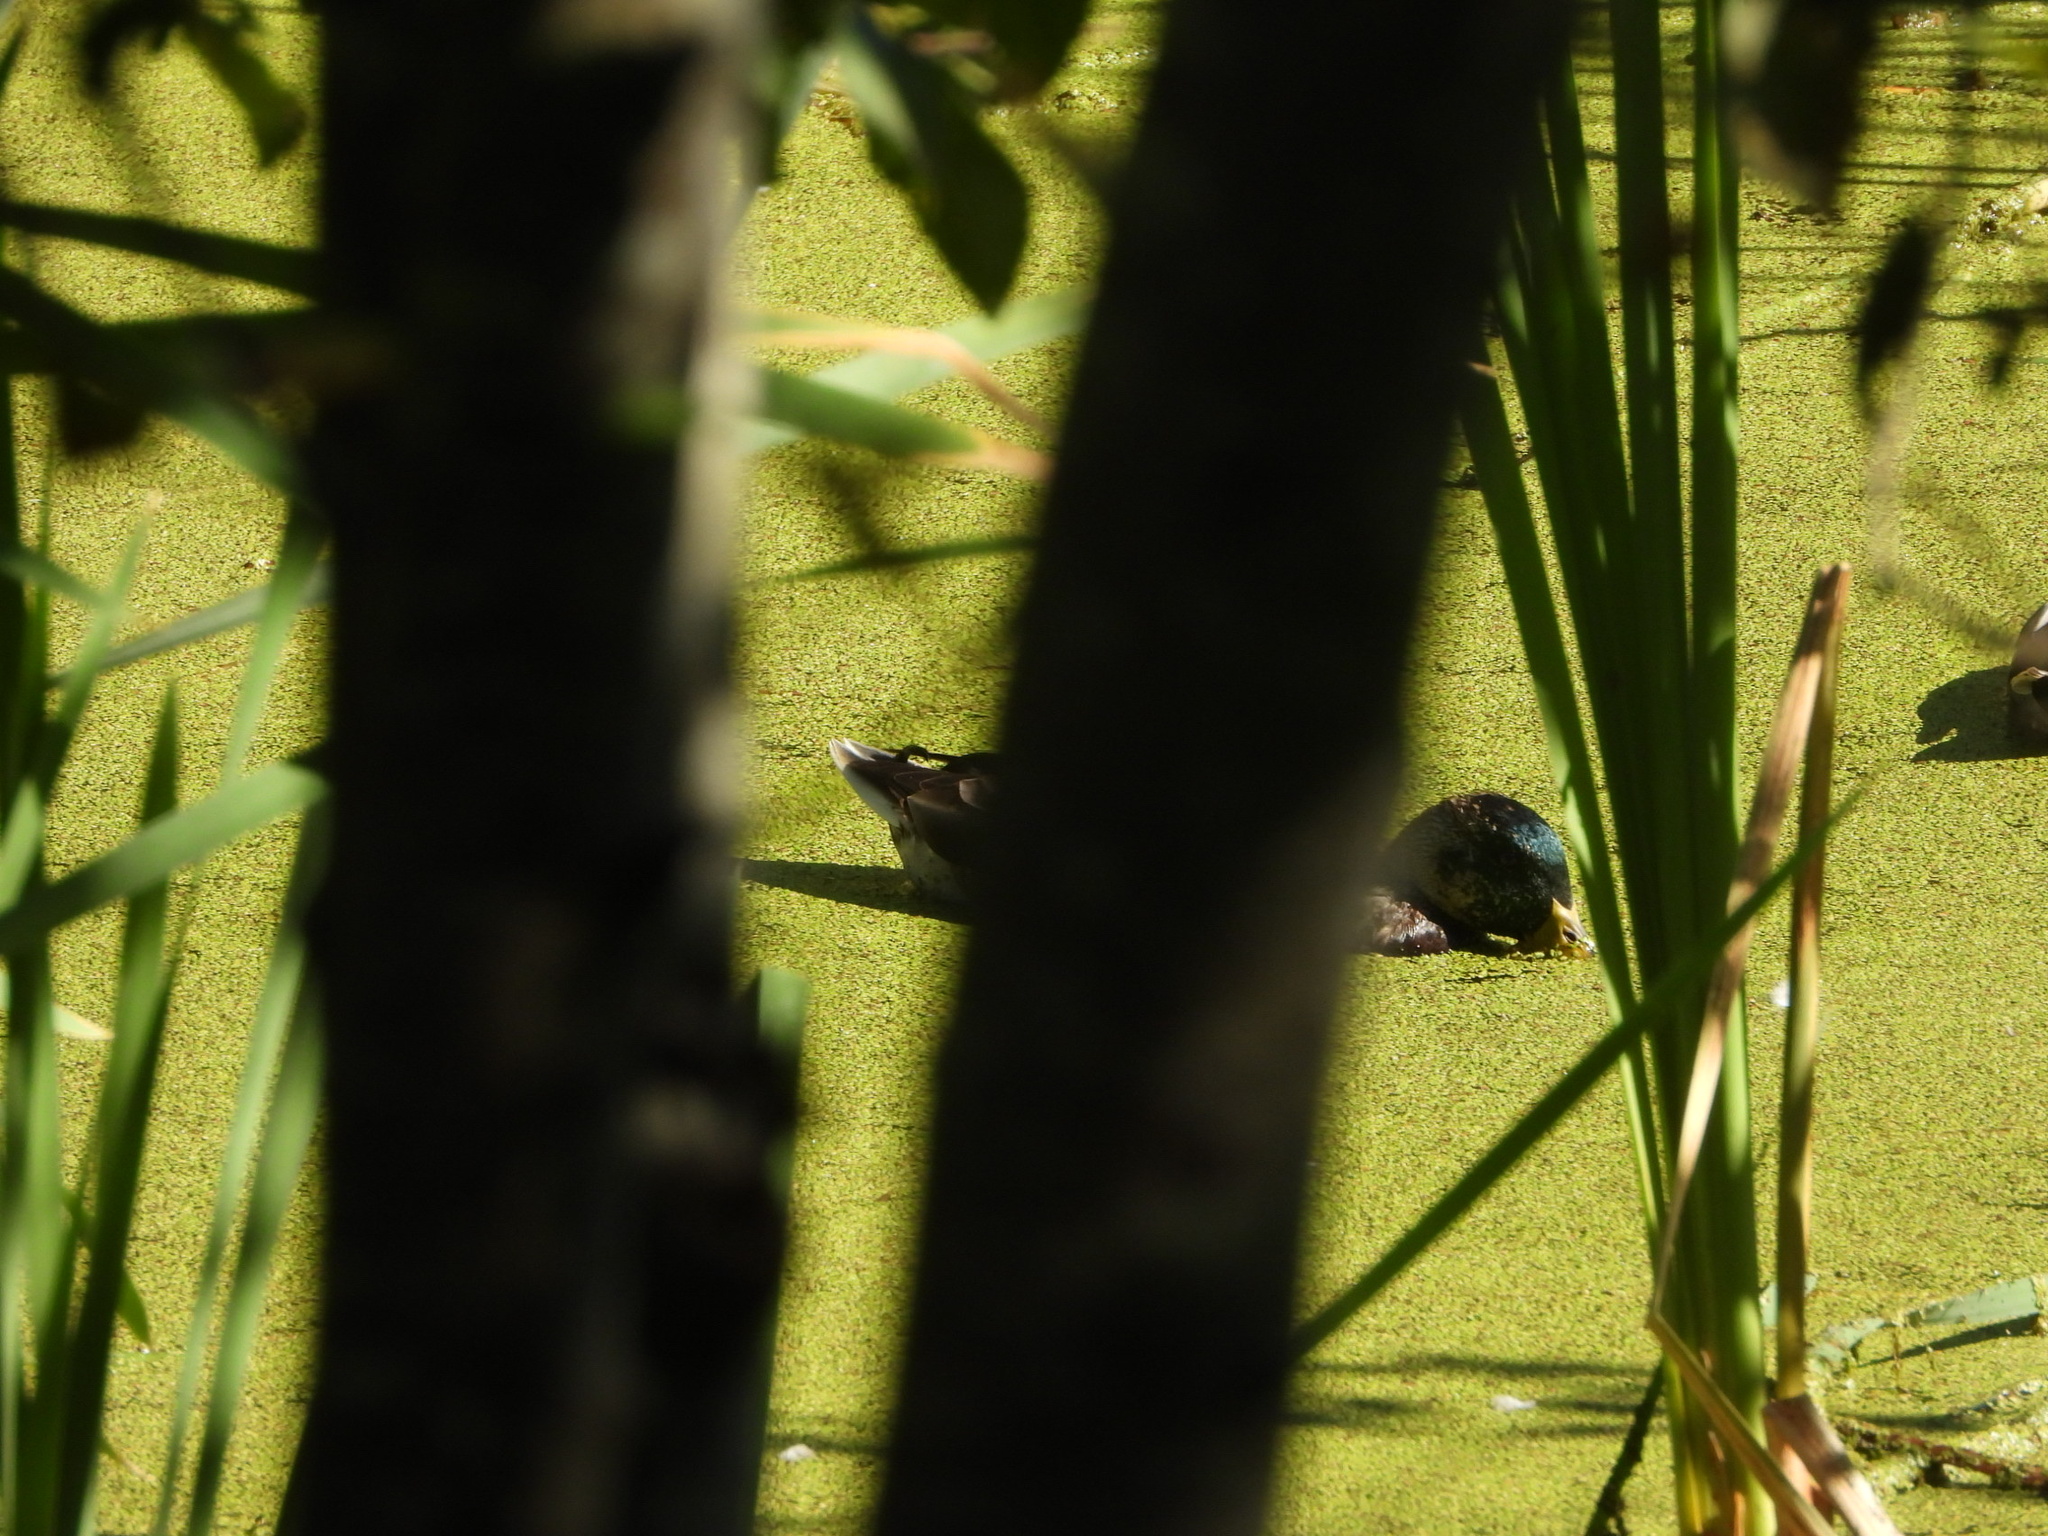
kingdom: Animalia
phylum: Chordata
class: Aves
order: Anseriformes
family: Anatidae
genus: Anas
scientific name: Anas platyrhynchos
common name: Mallard
